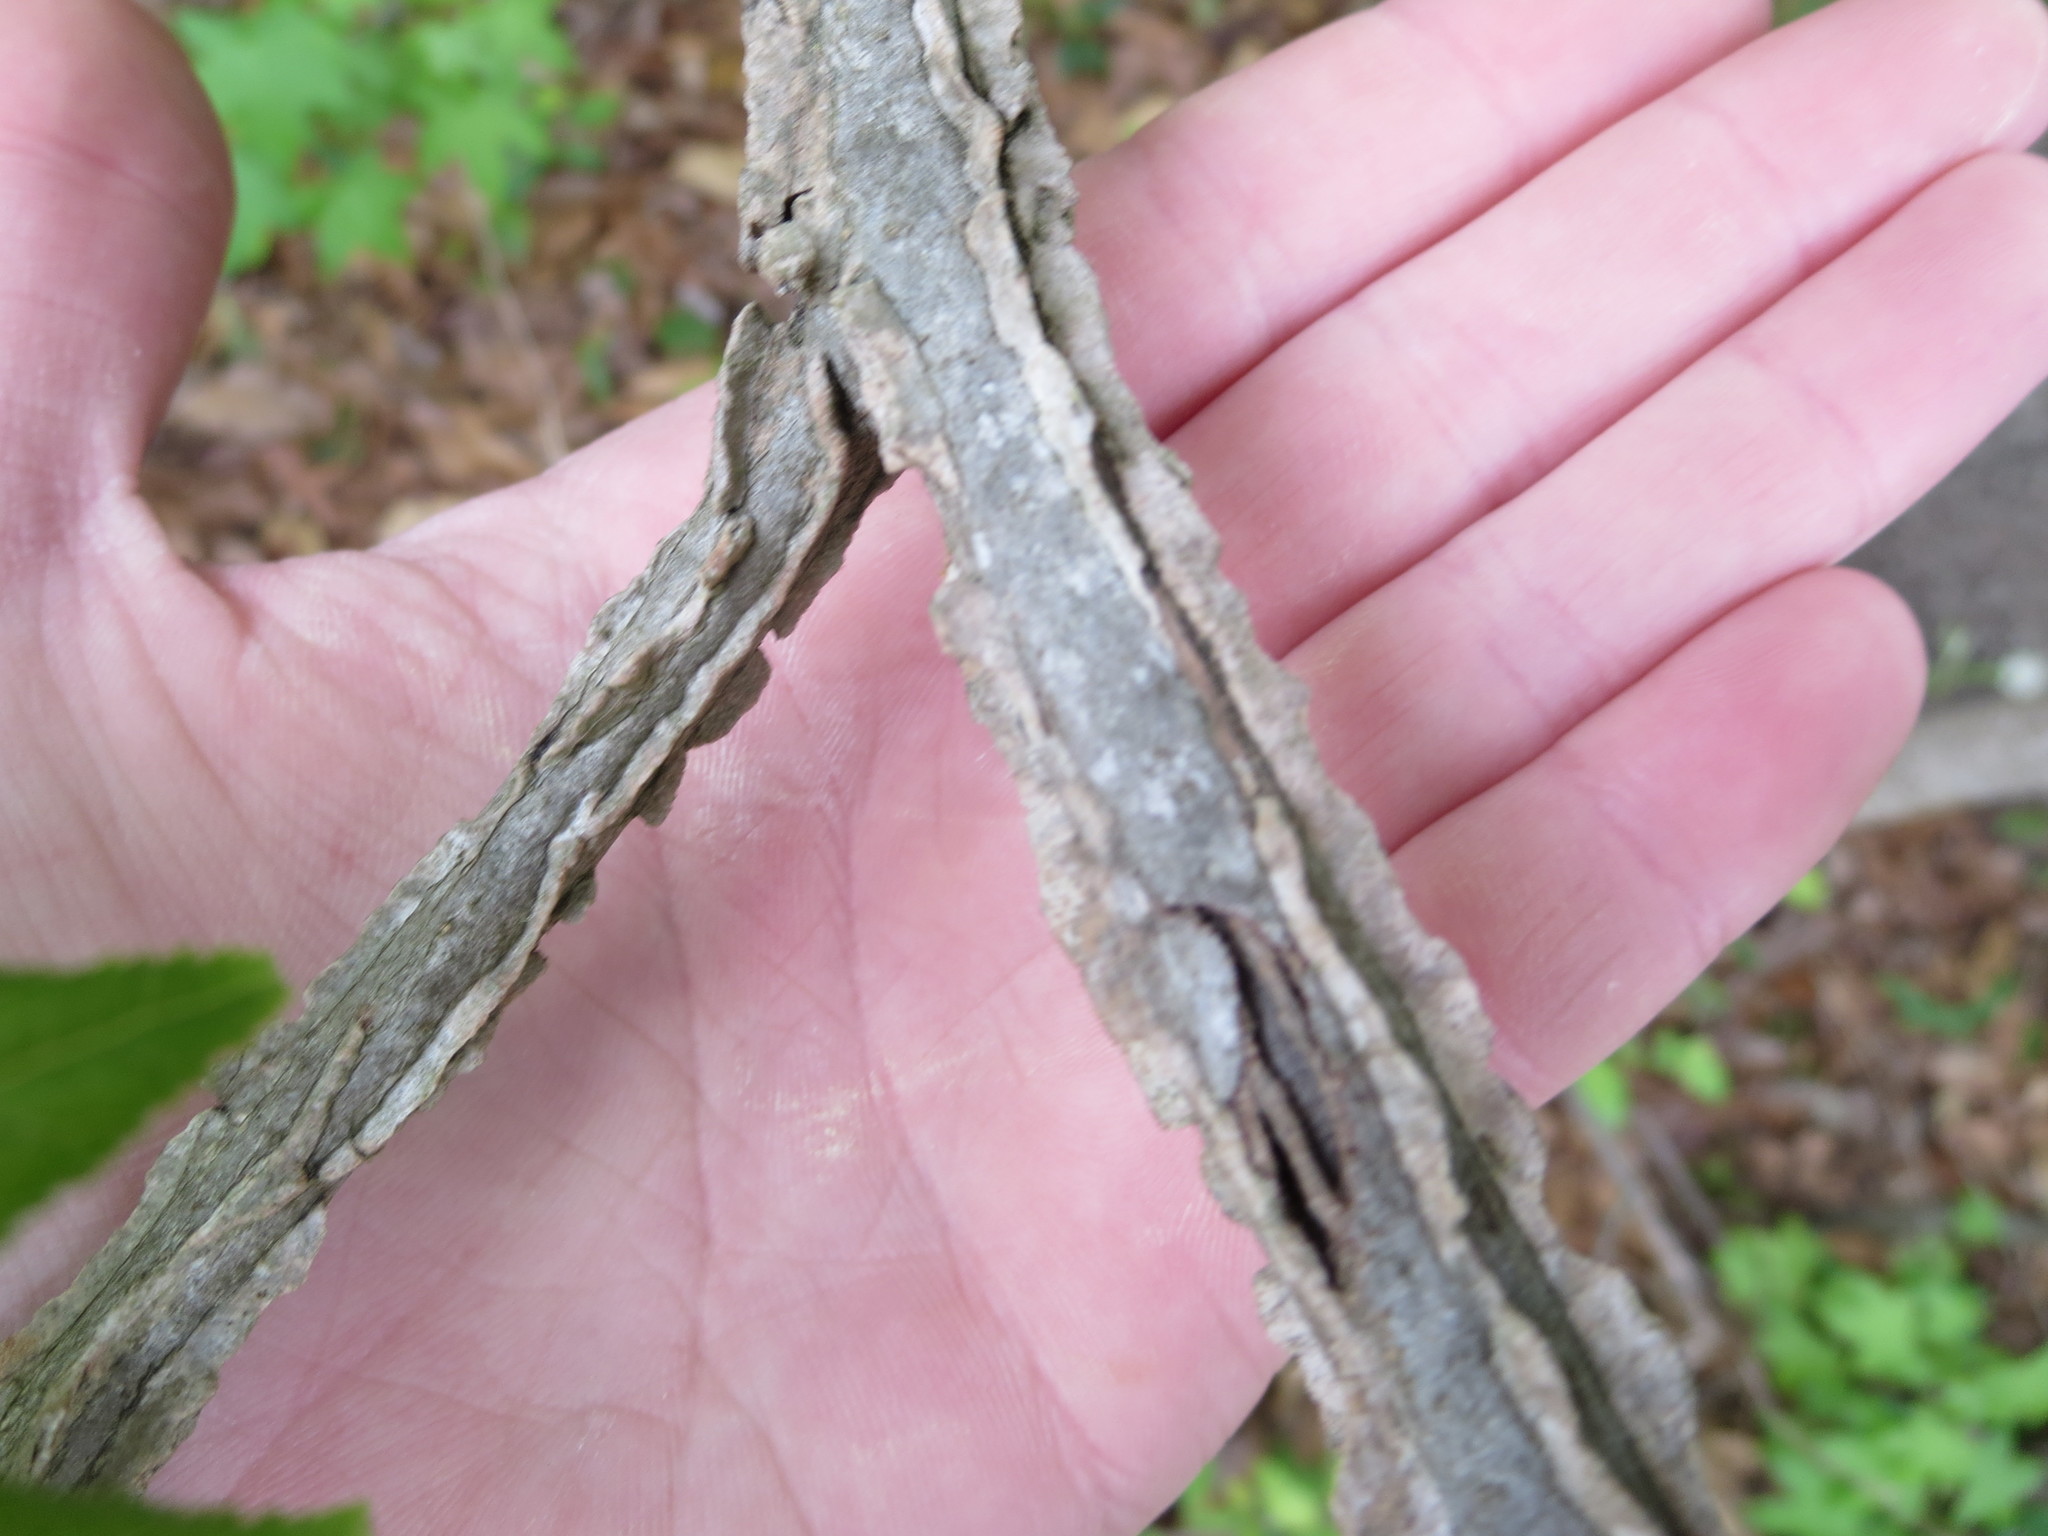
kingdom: Plantae
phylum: Tracheophyta
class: Magnoliopsida
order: Saxifragales
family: Altingiaceae
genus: Liquidambar
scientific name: Liquidambar styraciflua
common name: Sweet gum
